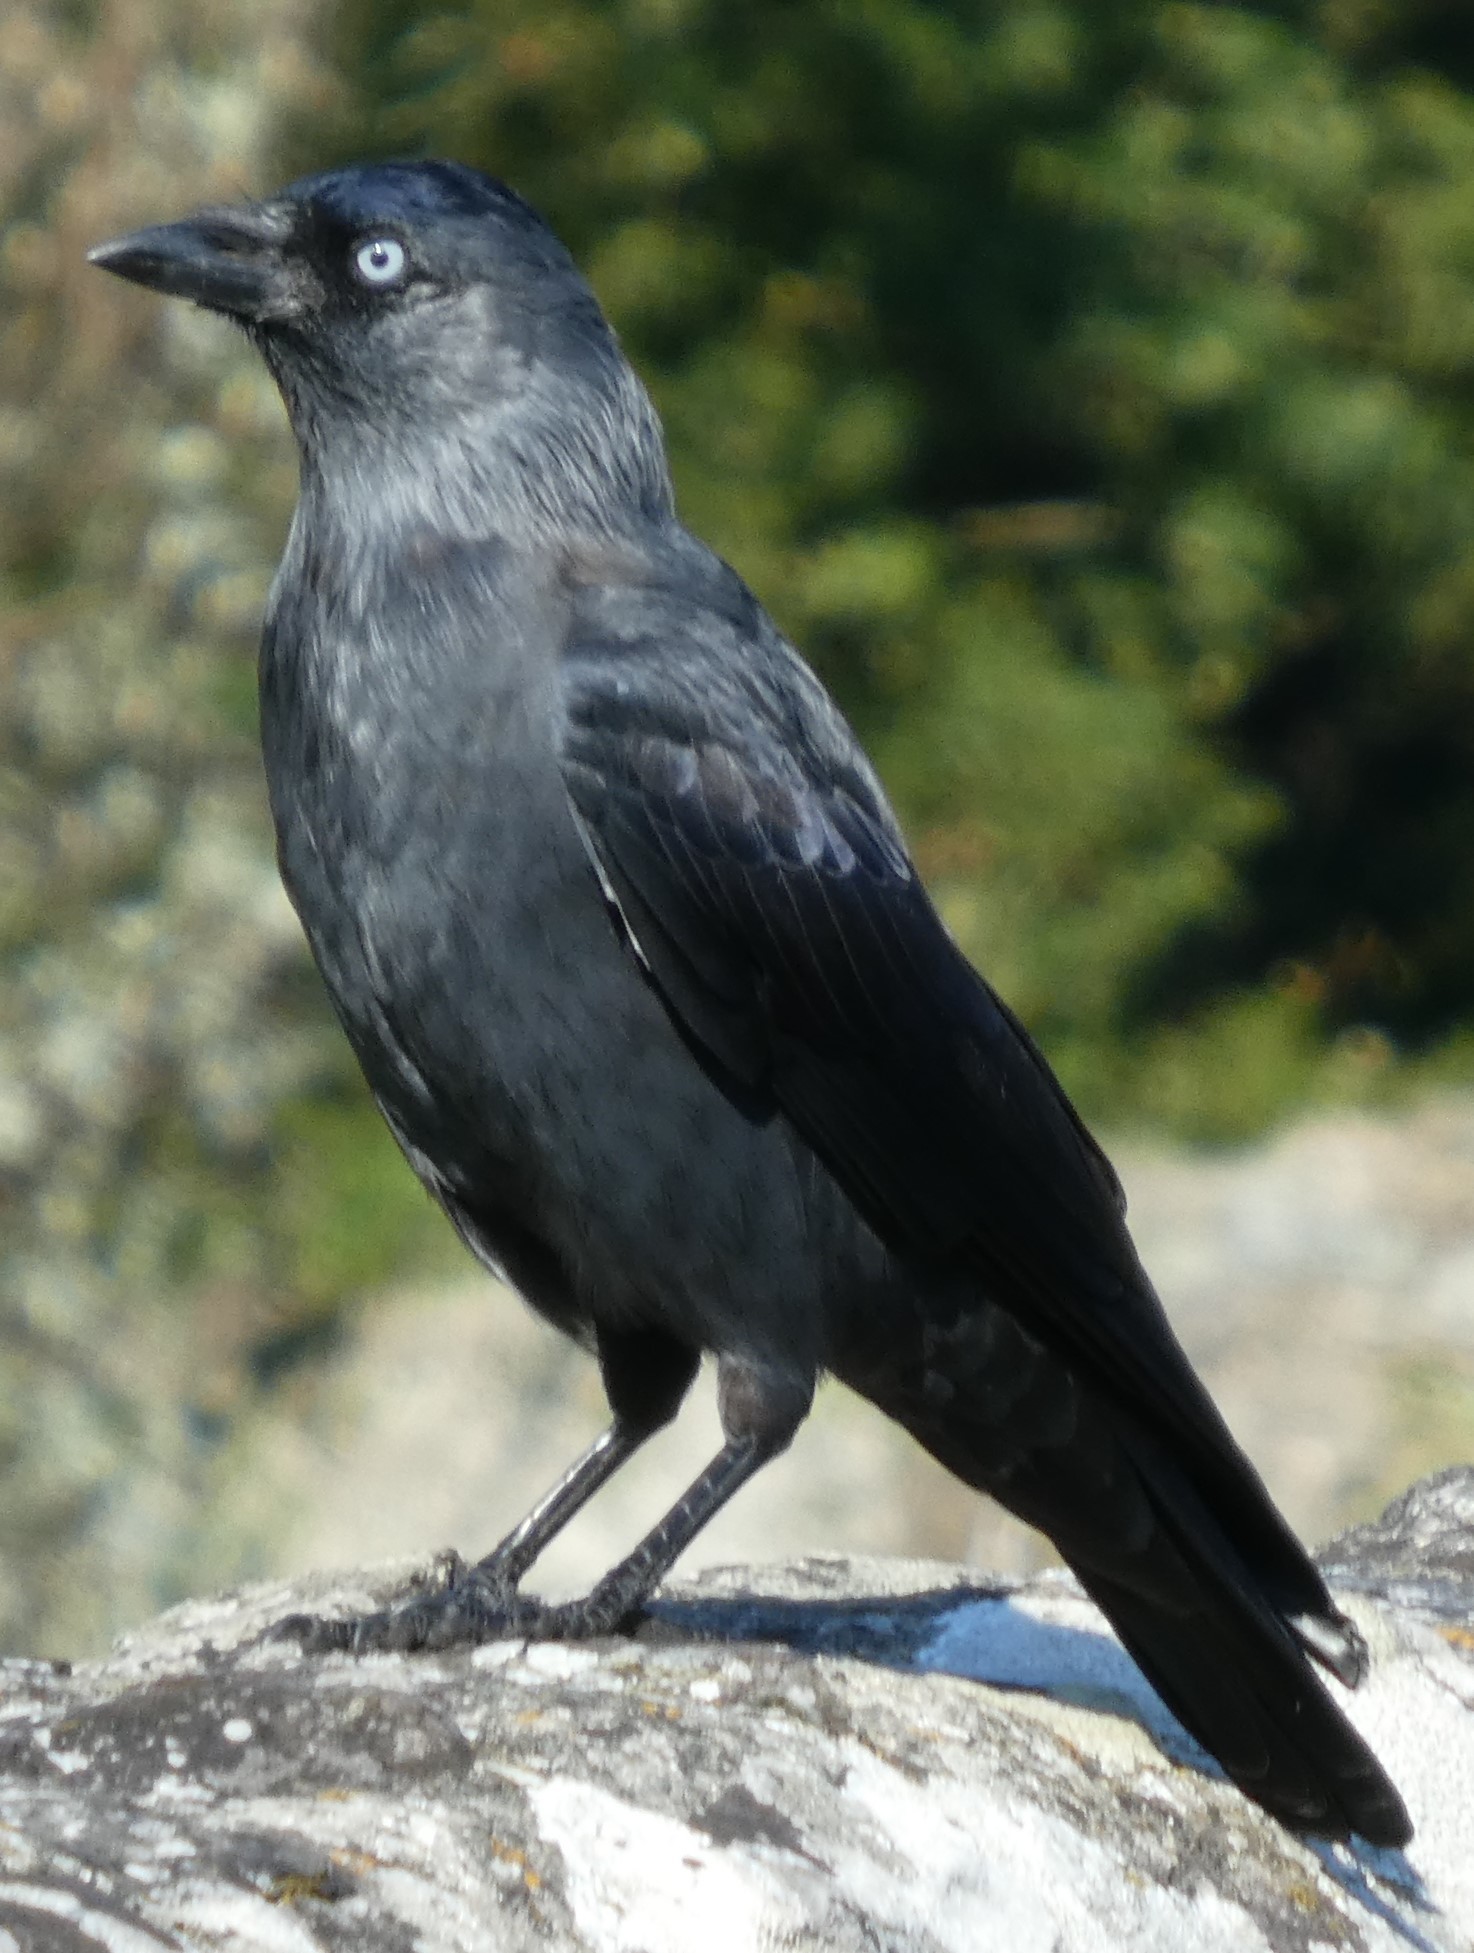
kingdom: Animalia
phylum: Chordata
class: Aves
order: Passeriformes
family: Corvidae
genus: Coloeus
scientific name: Coloeus monedula
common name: Western jackdaw
